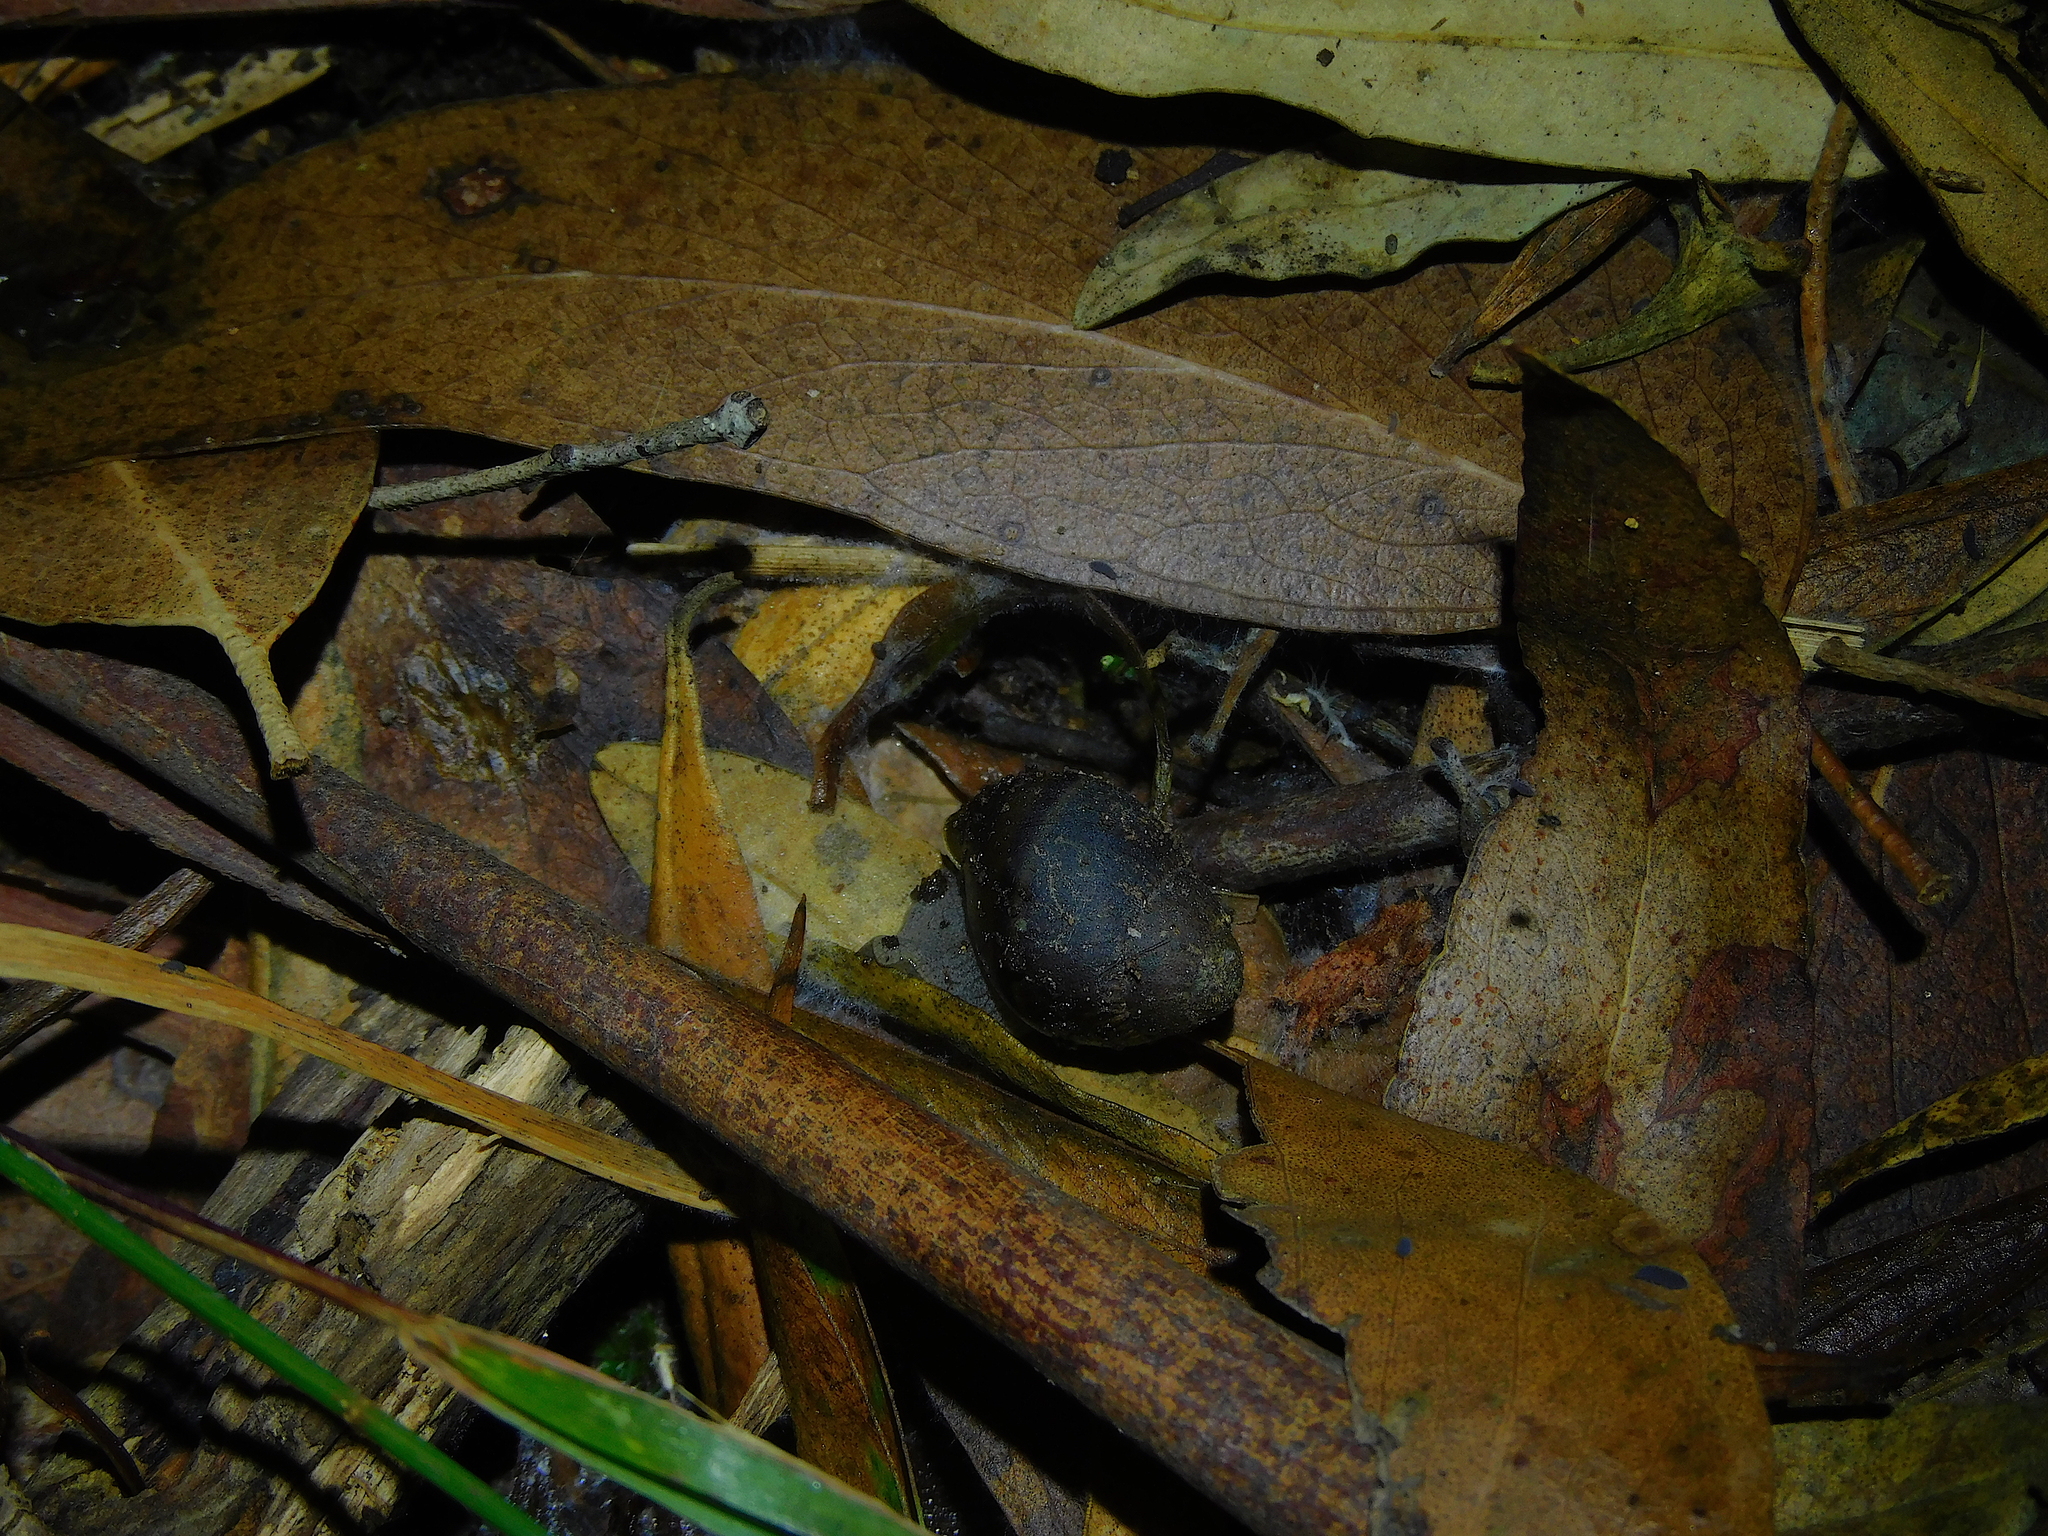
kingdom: Animalia
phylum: Mollusca
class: Gastropoda
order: Stylommatophora
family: Caryodidae
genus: Caryodes
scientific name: Caryodes dufresnii
